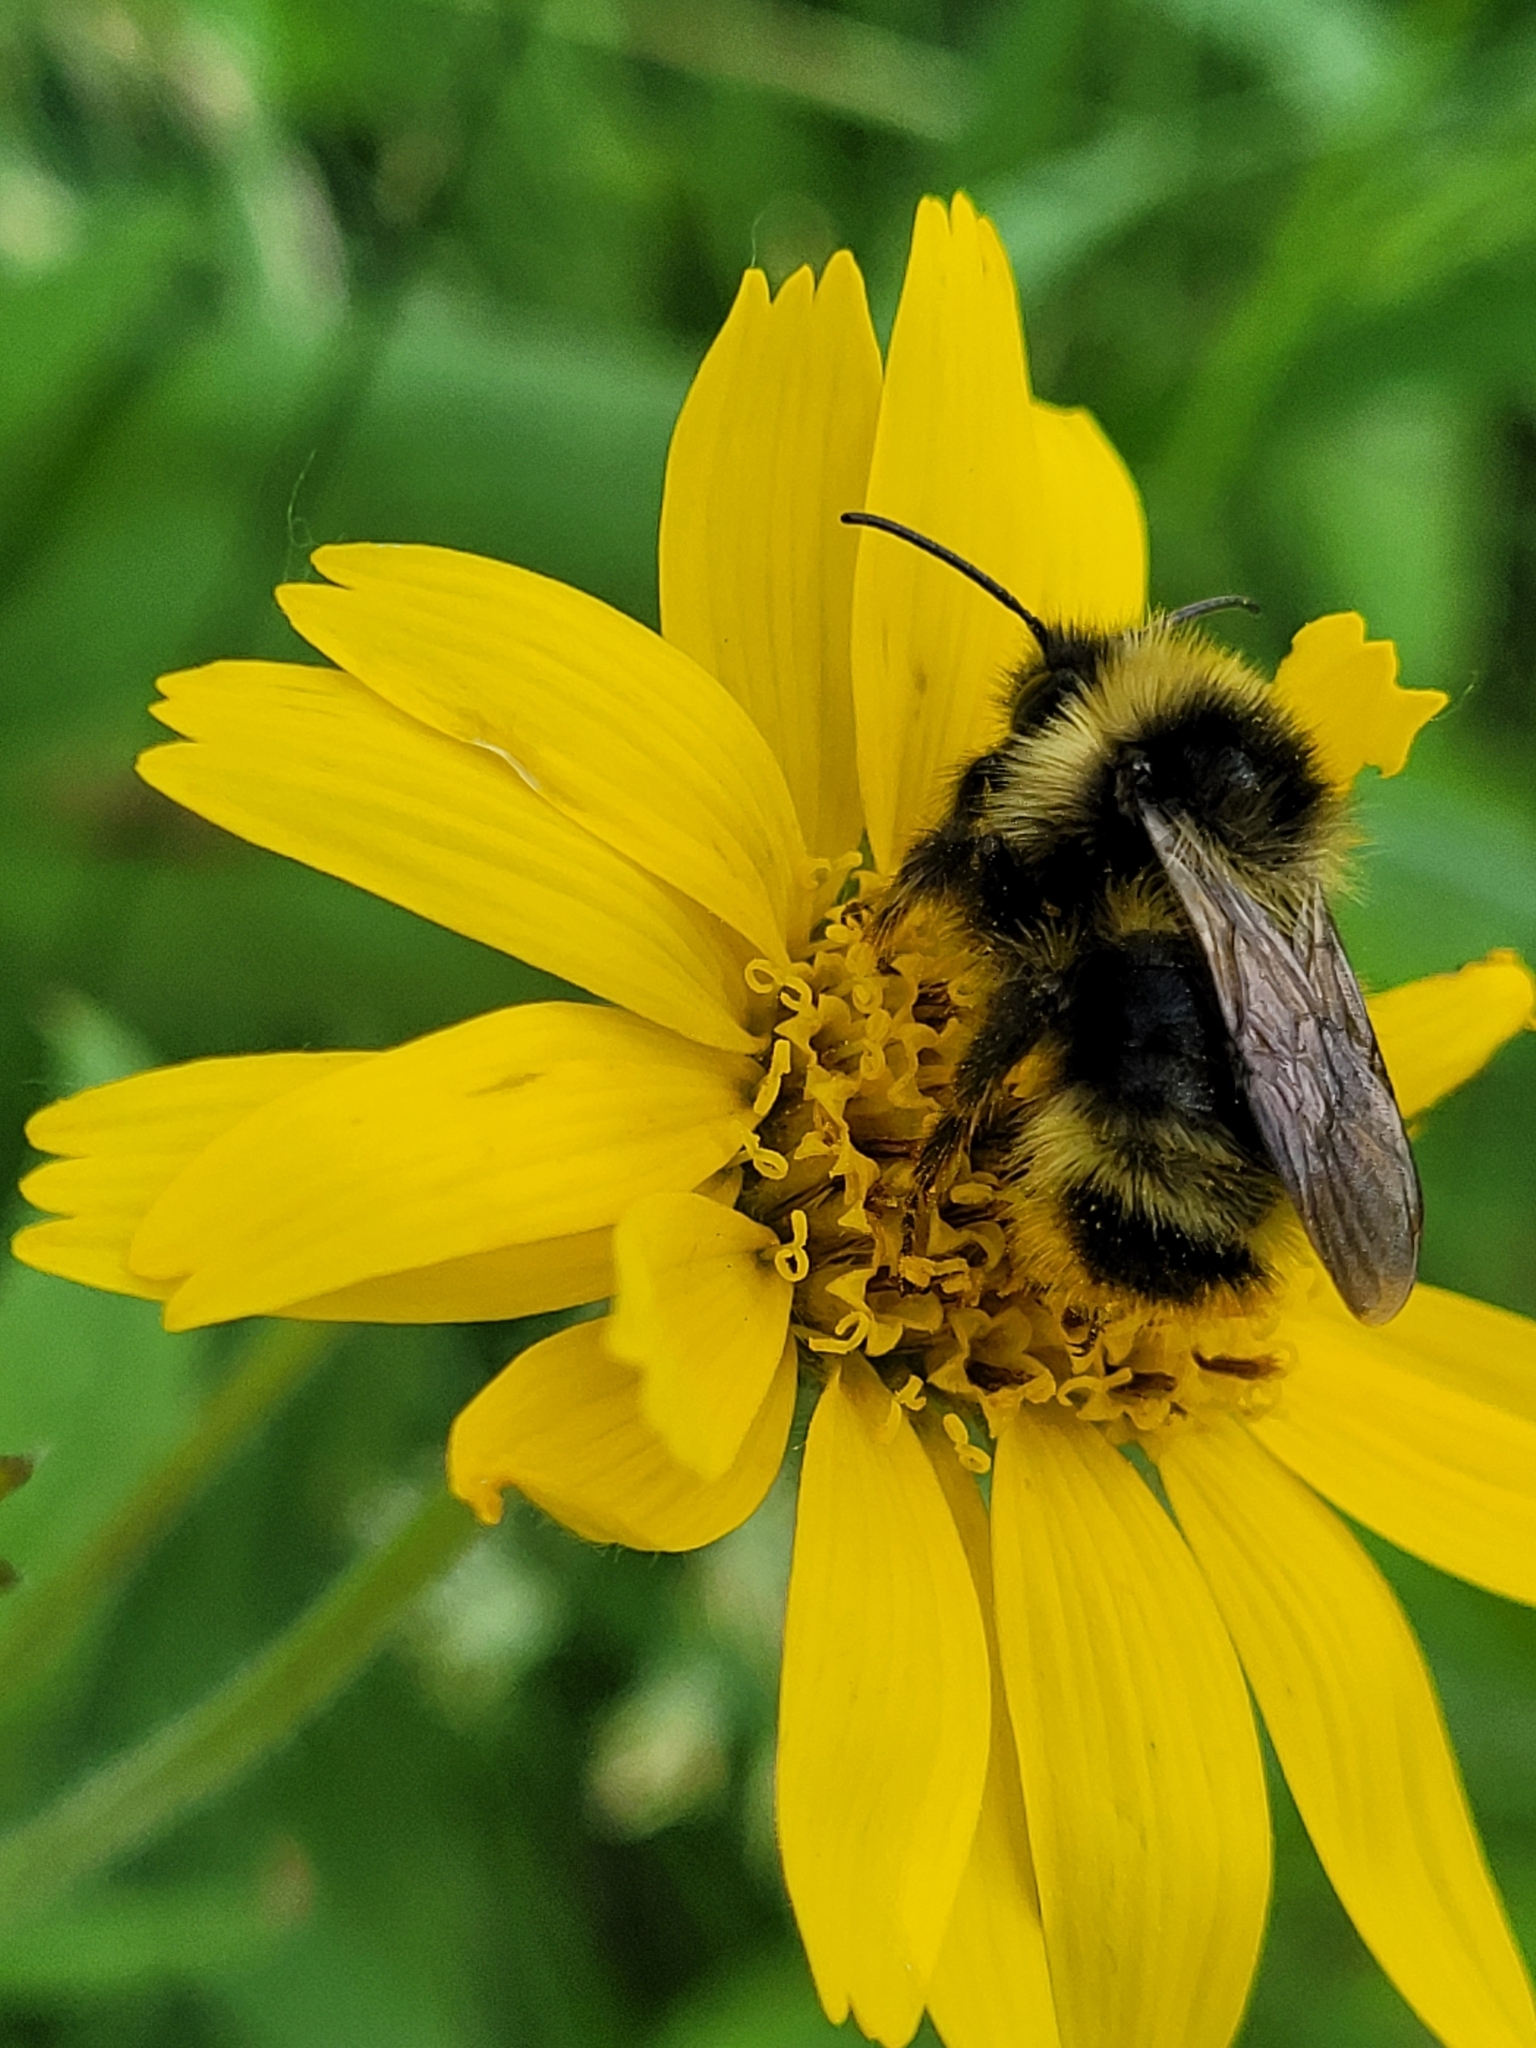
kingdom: Animalia
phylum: Arthropoda
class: Insecta
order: Hymenoptera
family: Apidae
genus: Bombus
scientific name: Bombus flavidus
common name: Fernald cuckoo bumble bee
